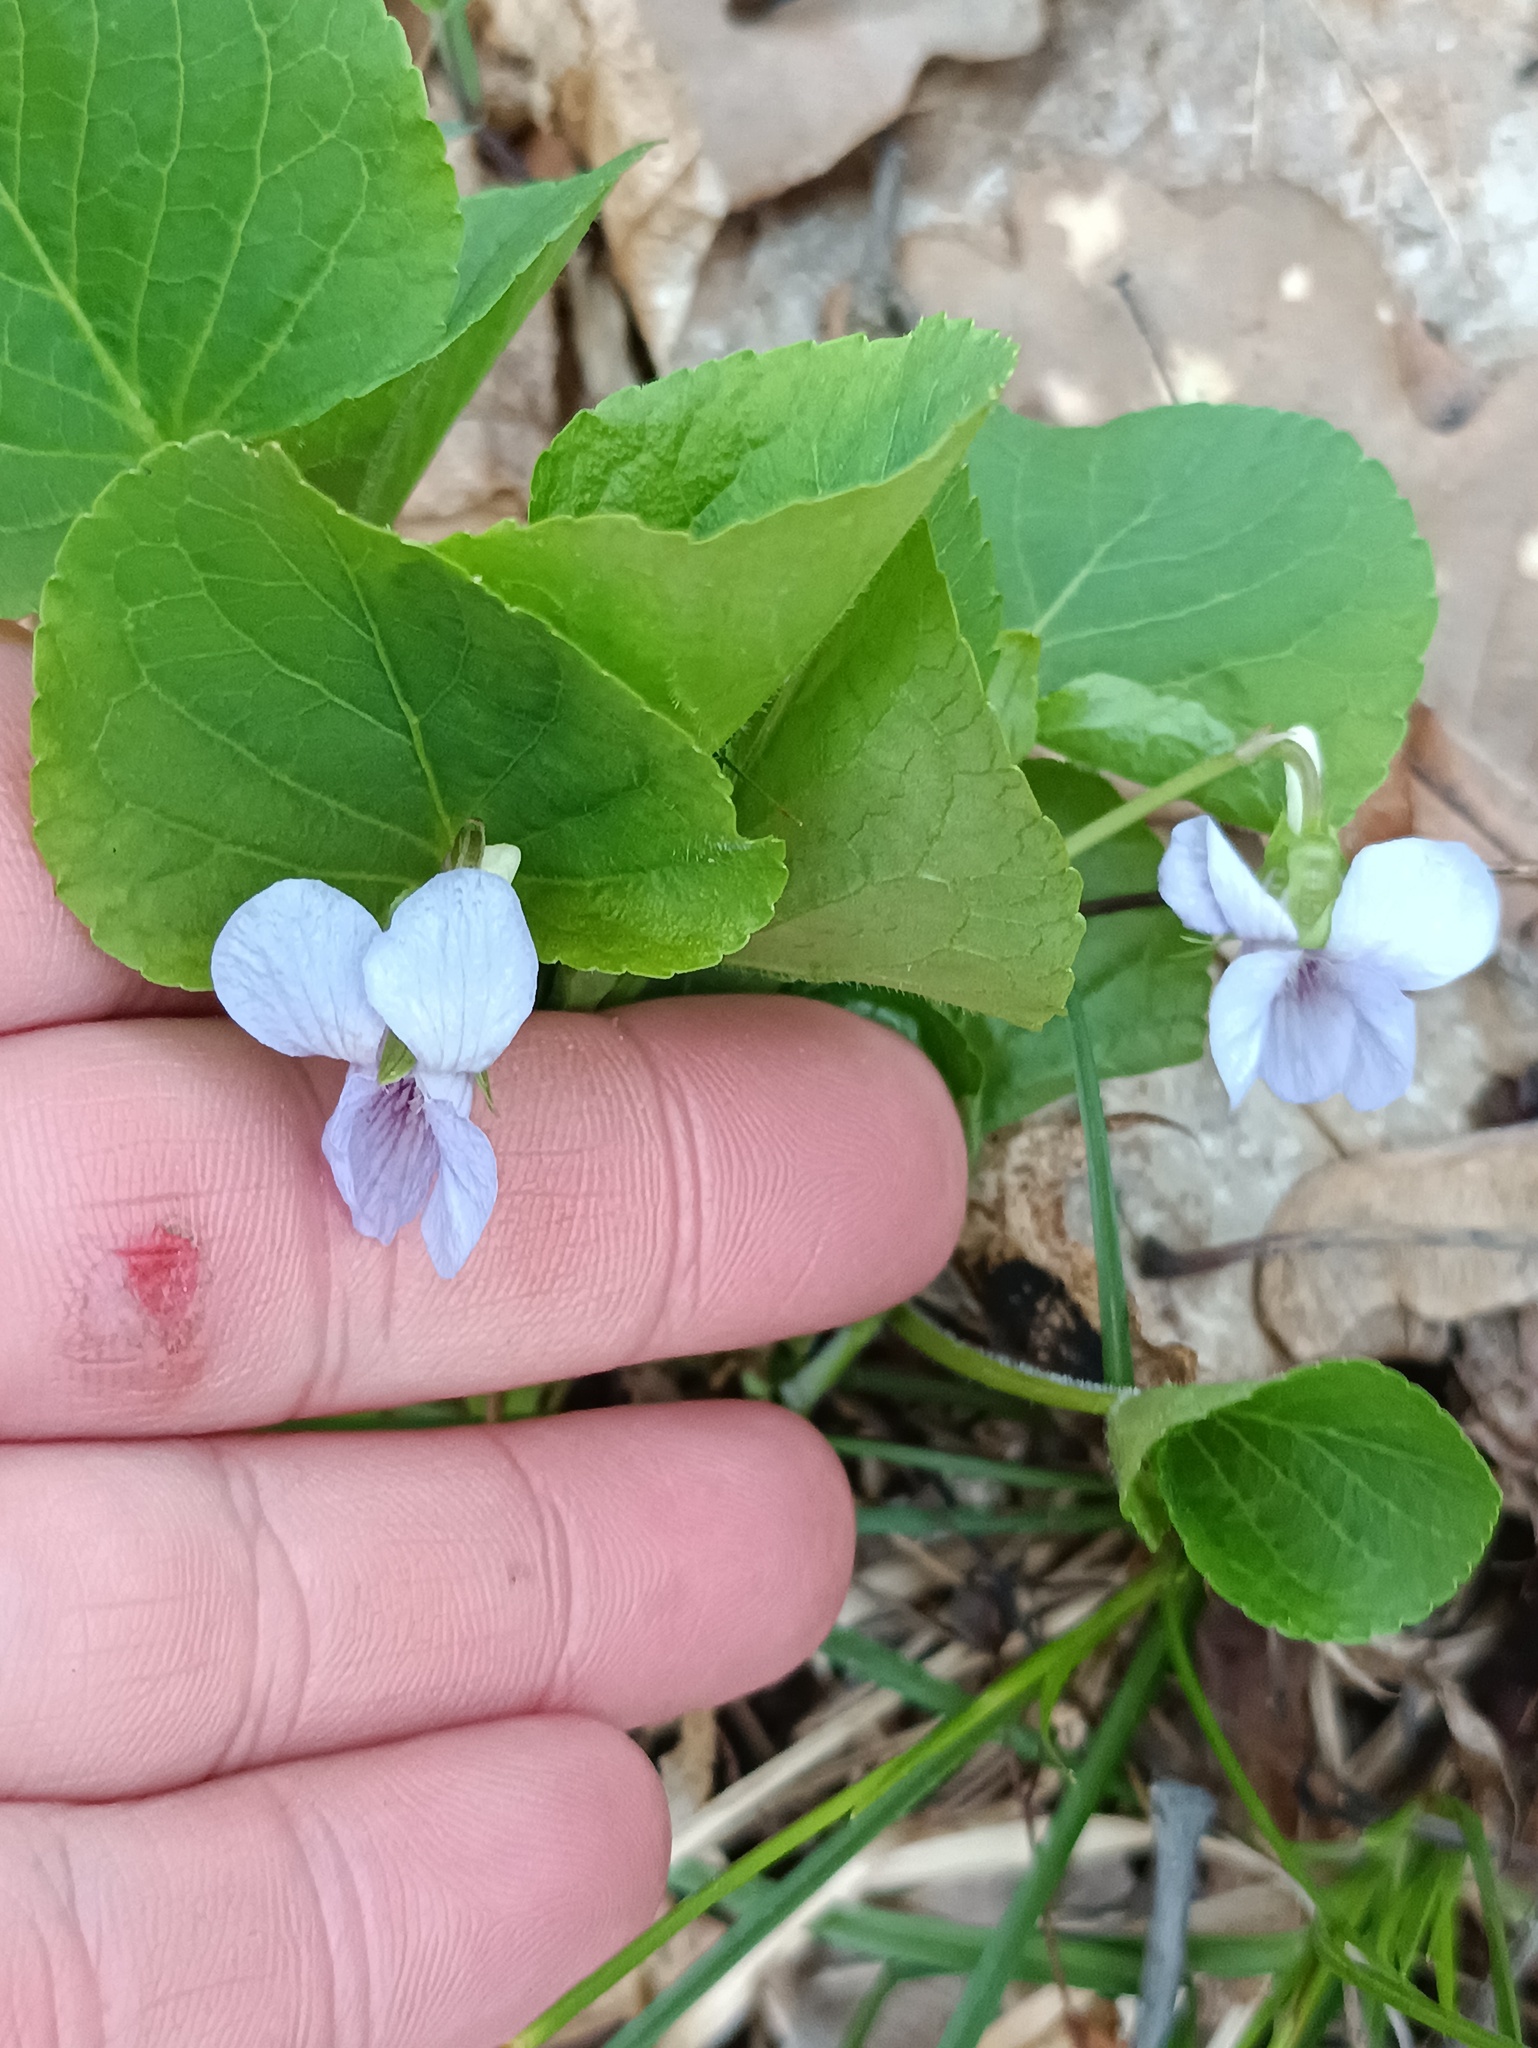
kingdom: Plantae
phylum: Tracheophyta
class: Magnoliopsida
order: Malpighiales
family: Violaceae
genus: Viola
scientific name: Viola mirabilis
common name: Wonder violet
